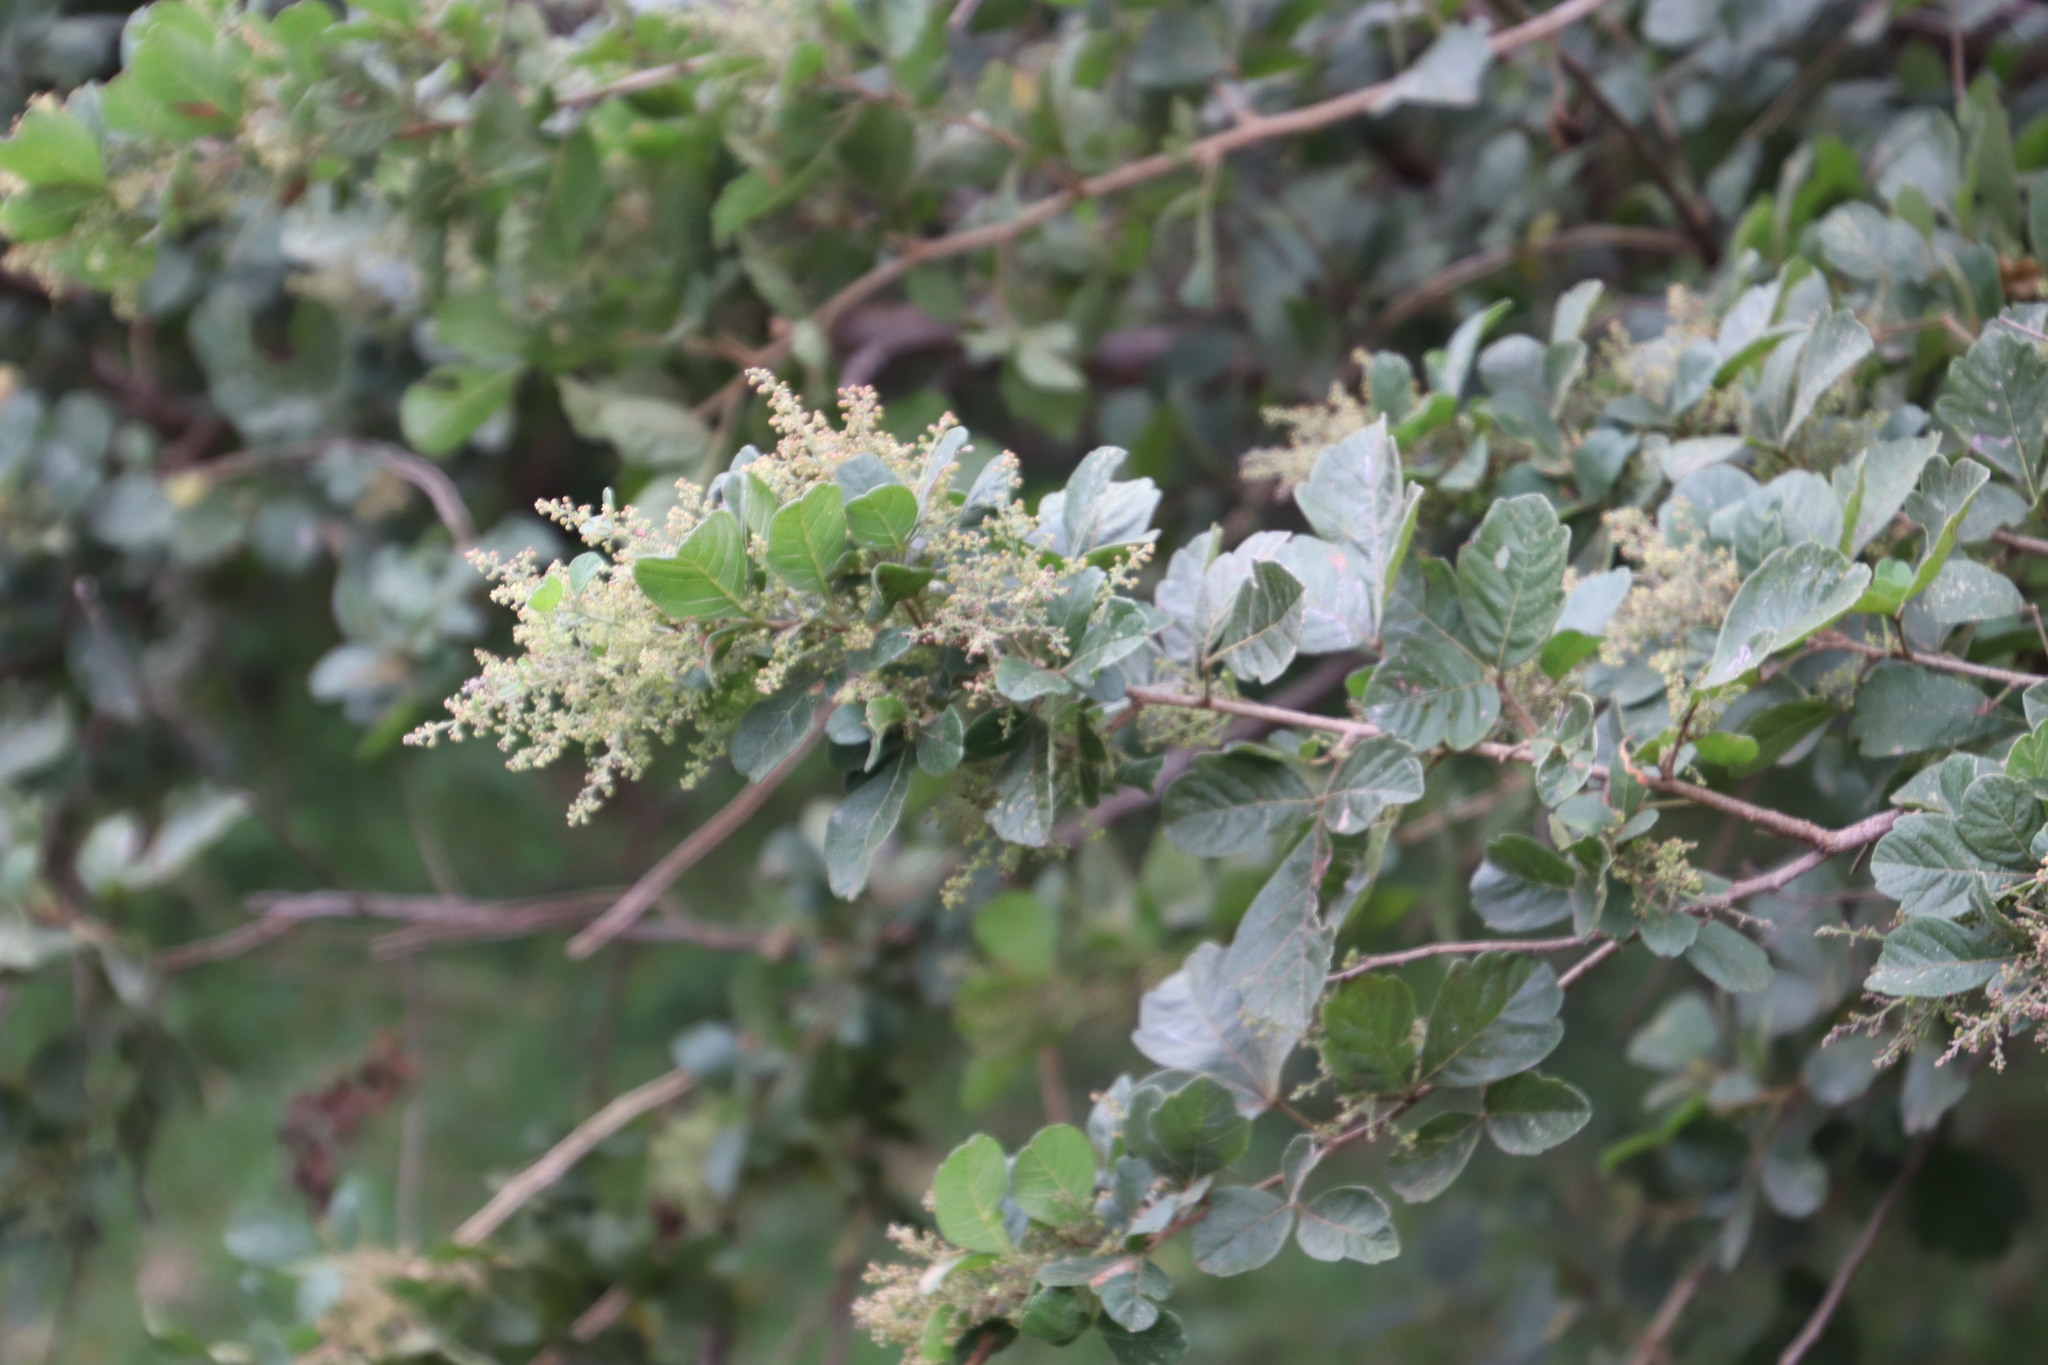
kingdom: Plantae
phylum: Tracheophyta
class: Magnoliopsida
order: Sapindales
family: Anacardiaceae
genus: Searsia
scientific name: Searsia rehmanniana
